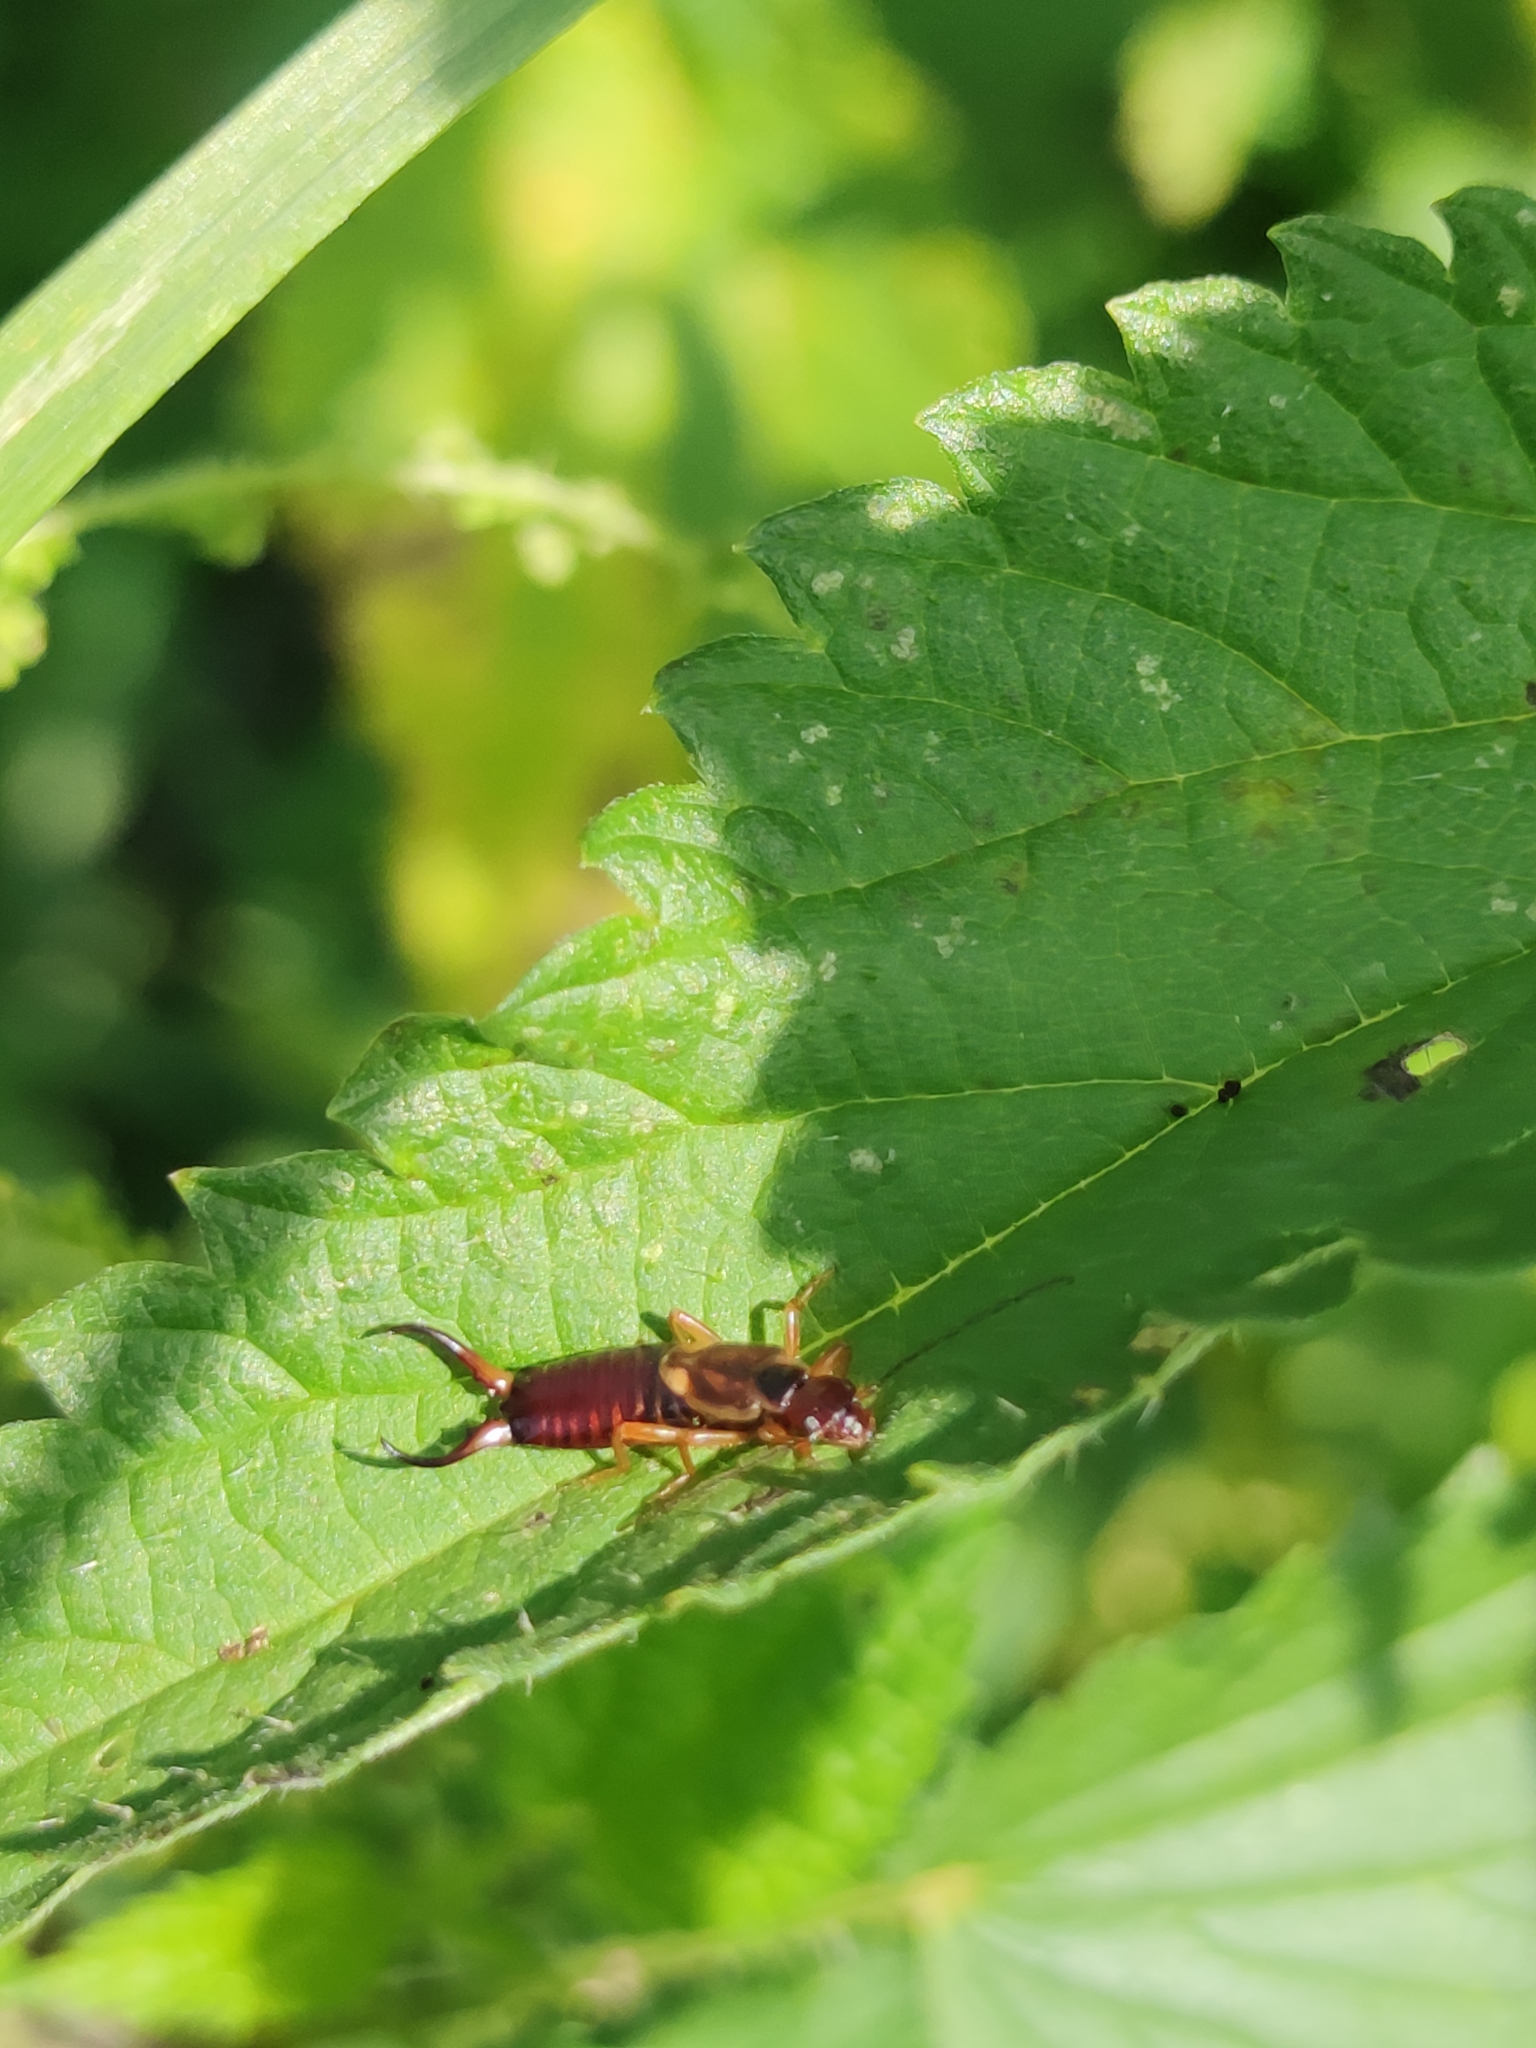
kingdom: Animalia
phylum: Arthropoda
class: Insecta
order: Dermaptera
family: Forficulidae
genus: Forficula
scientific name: Forficula
